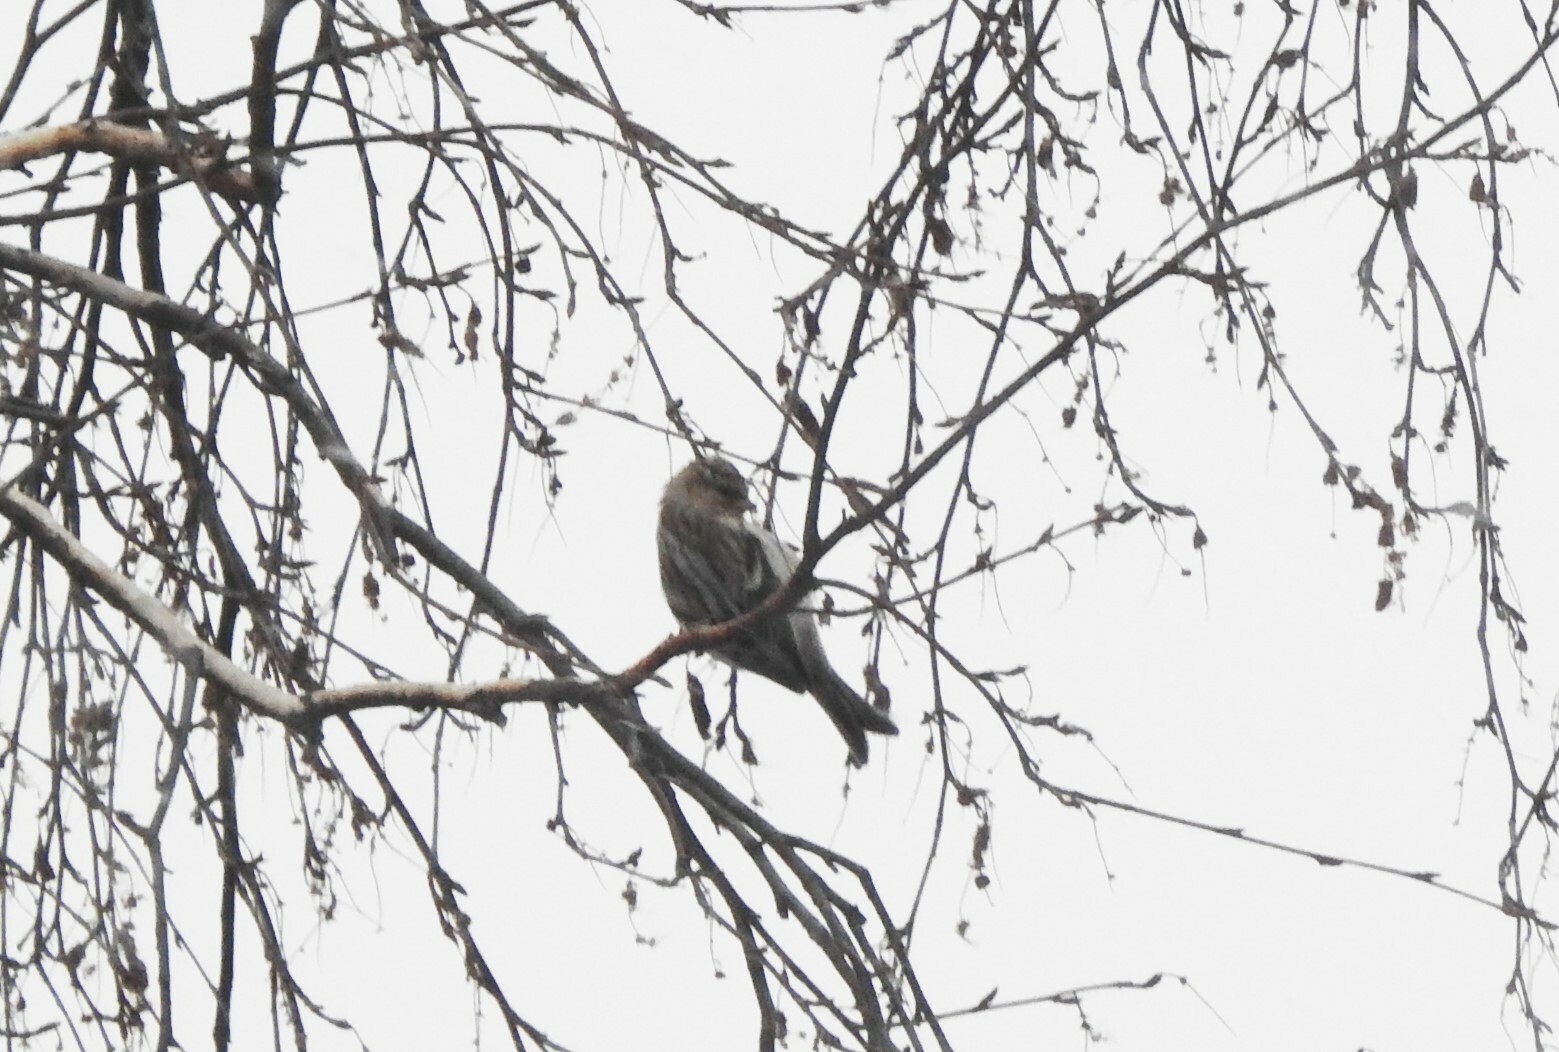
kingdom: Animalia
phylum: Chordata
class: Aves
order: Passeriformes
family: Fringillidae
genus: Acanthis
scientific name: Acanthis flammea
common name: Common redpoll
